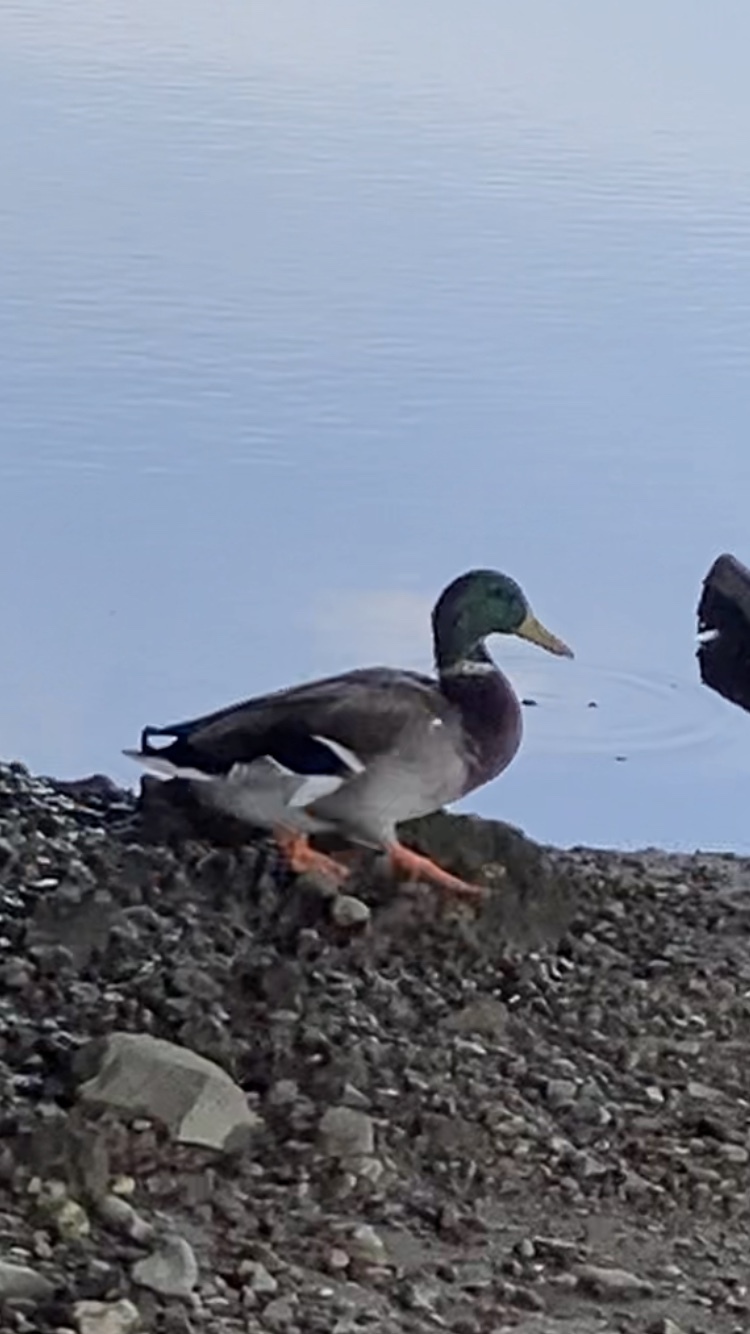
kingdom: Animalia
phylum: Chordata
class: Aves
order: Anseriformes
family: Anatidae
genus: Anas
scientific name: Anas platyrhynchos
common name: Mallard
